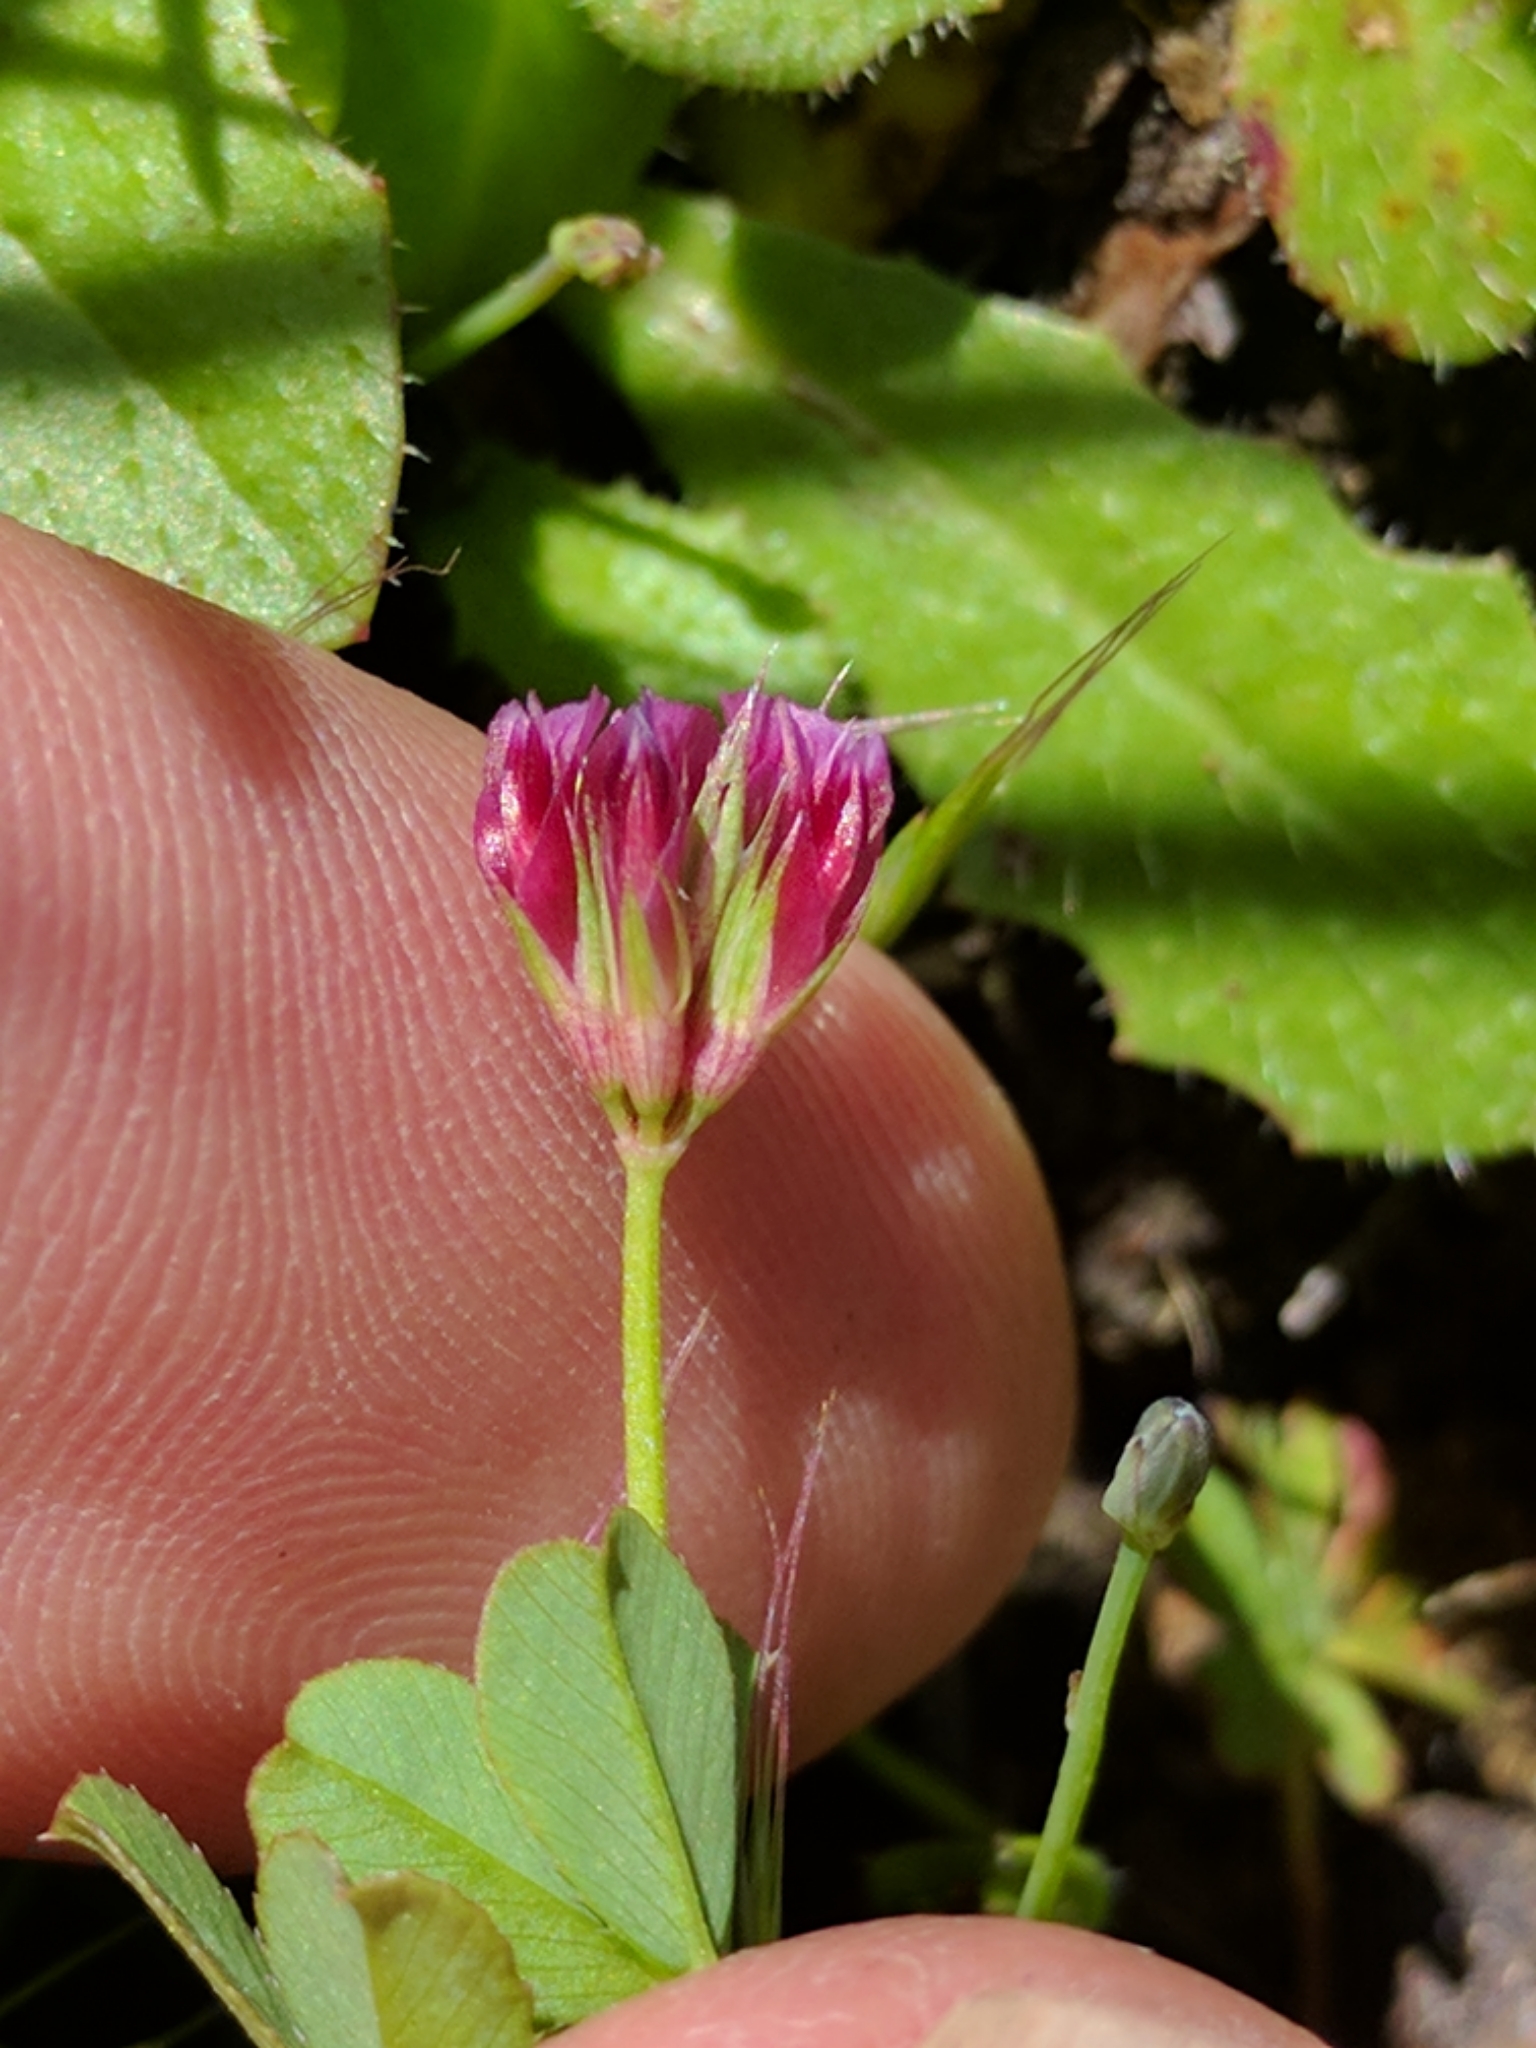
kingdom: Plantae
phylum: Tracheophyta
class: Magnoliopsida
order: Fabales
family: Fabaceae
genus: Trifolium
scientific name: Trifolium gracilentum
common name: Slender clover
